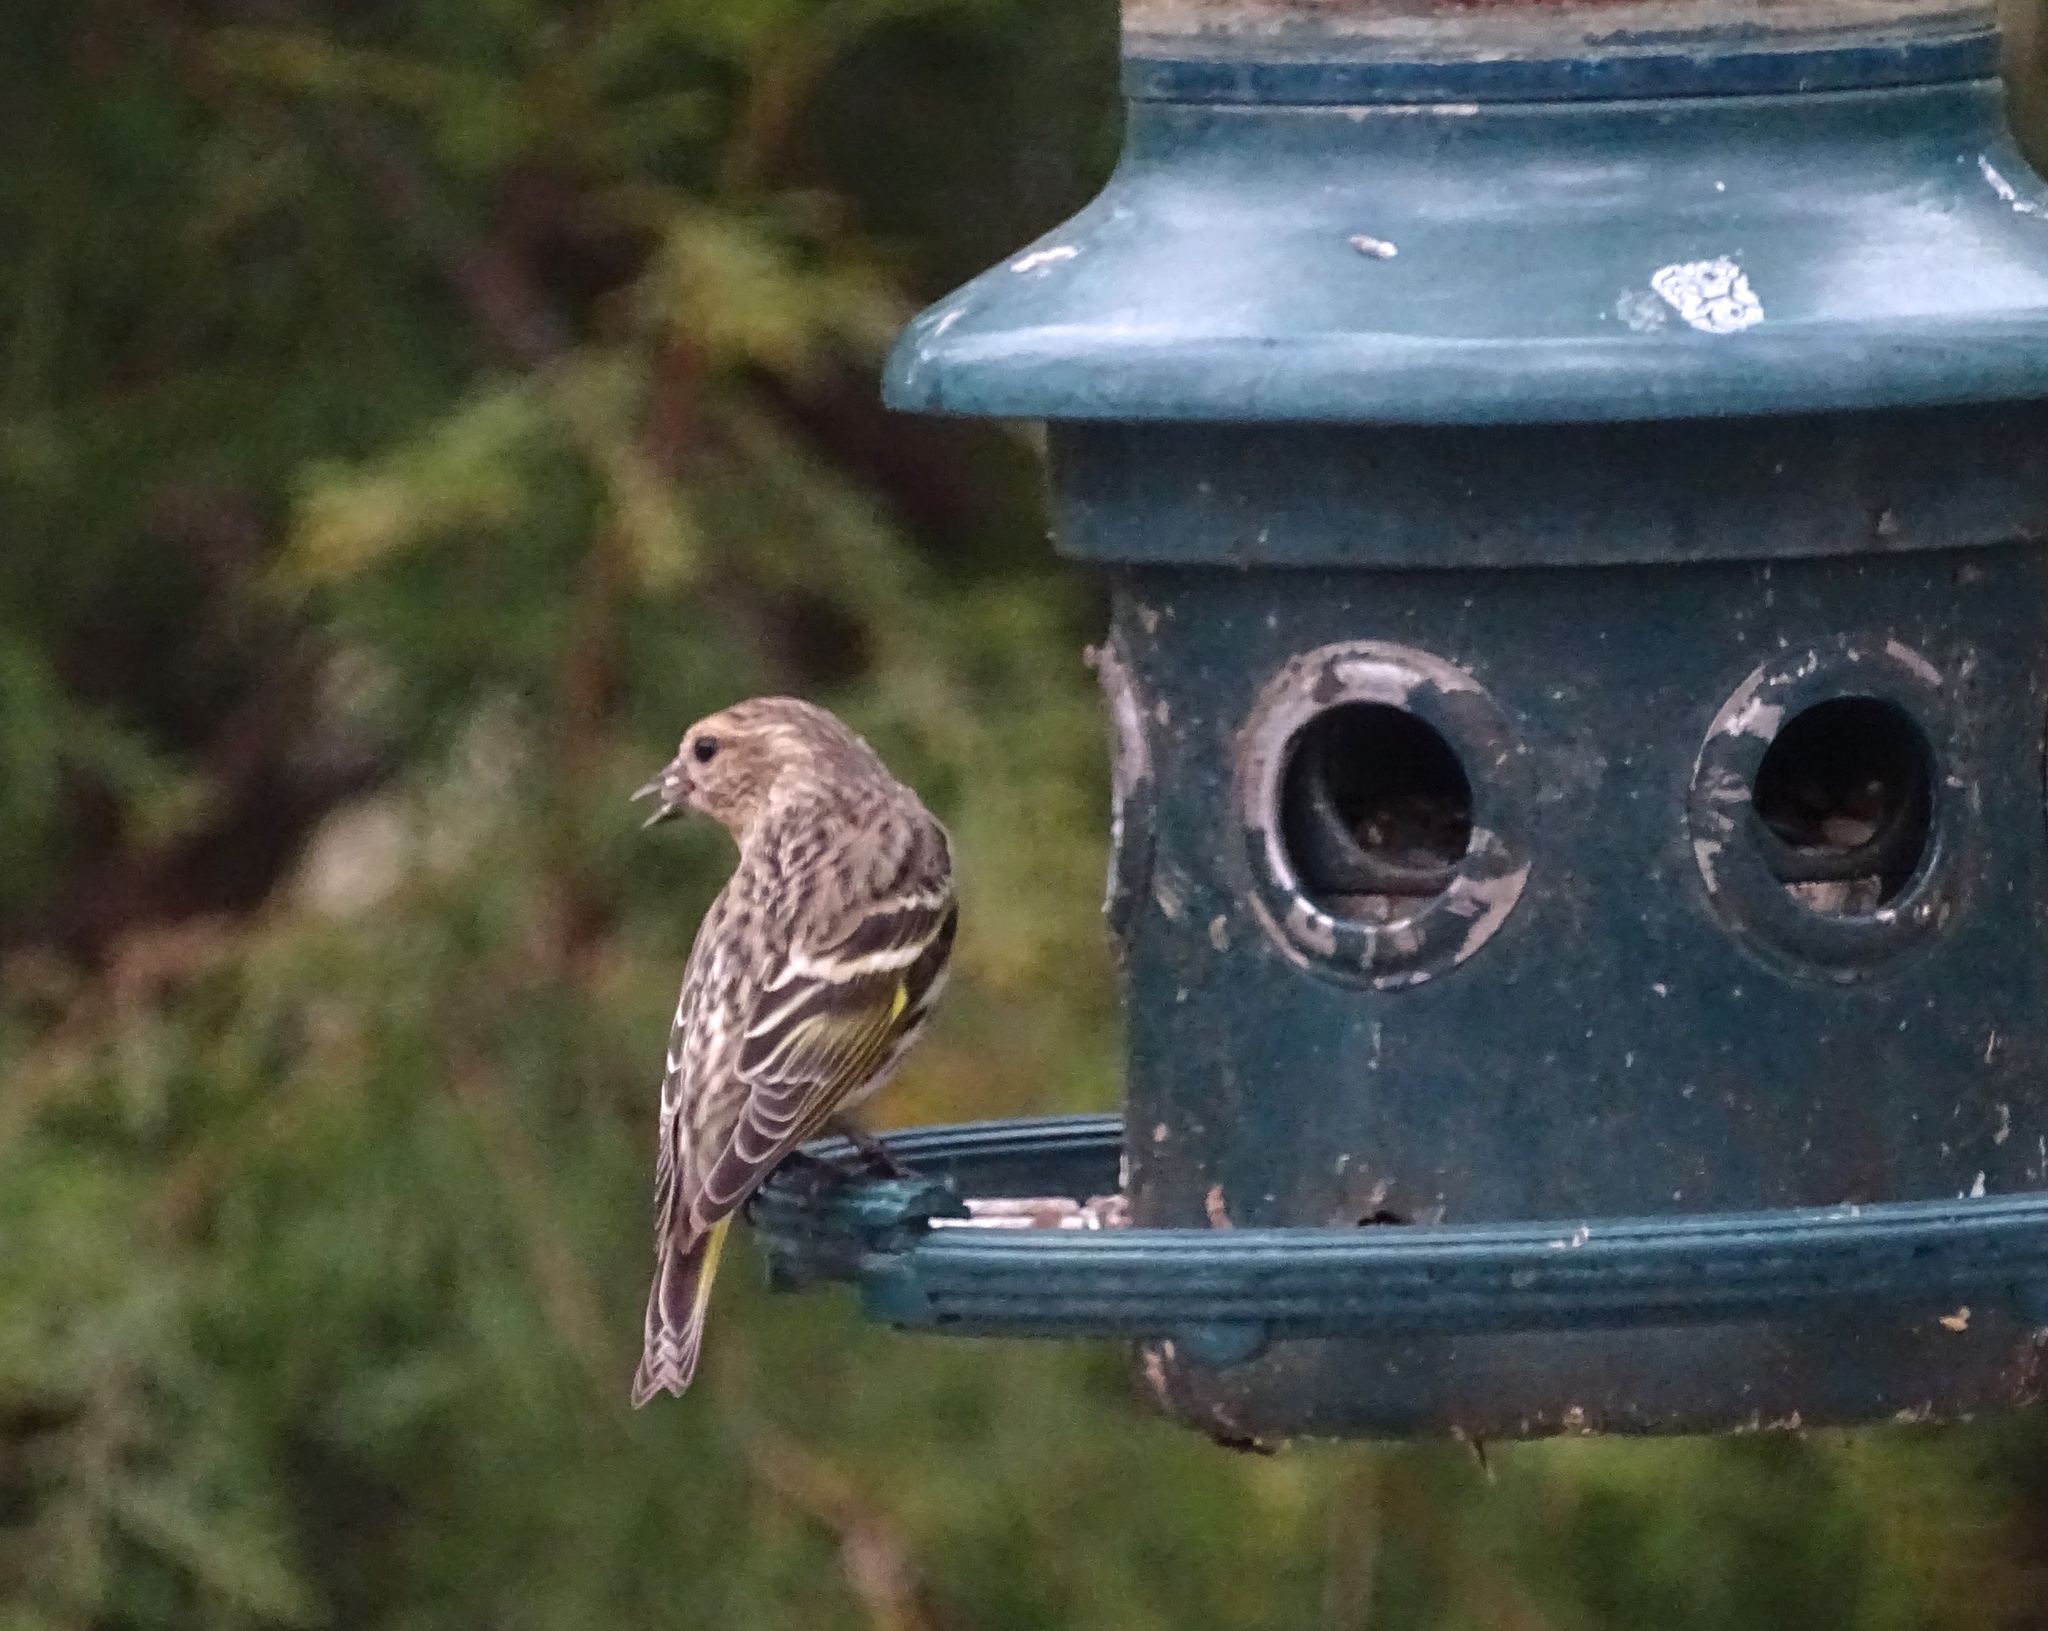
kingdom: Animalia
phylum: Chordata
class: Aves
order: Passeriformes
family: Fringillidae
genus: Spinus
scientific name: Spinus pinus
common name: Pine siskin
